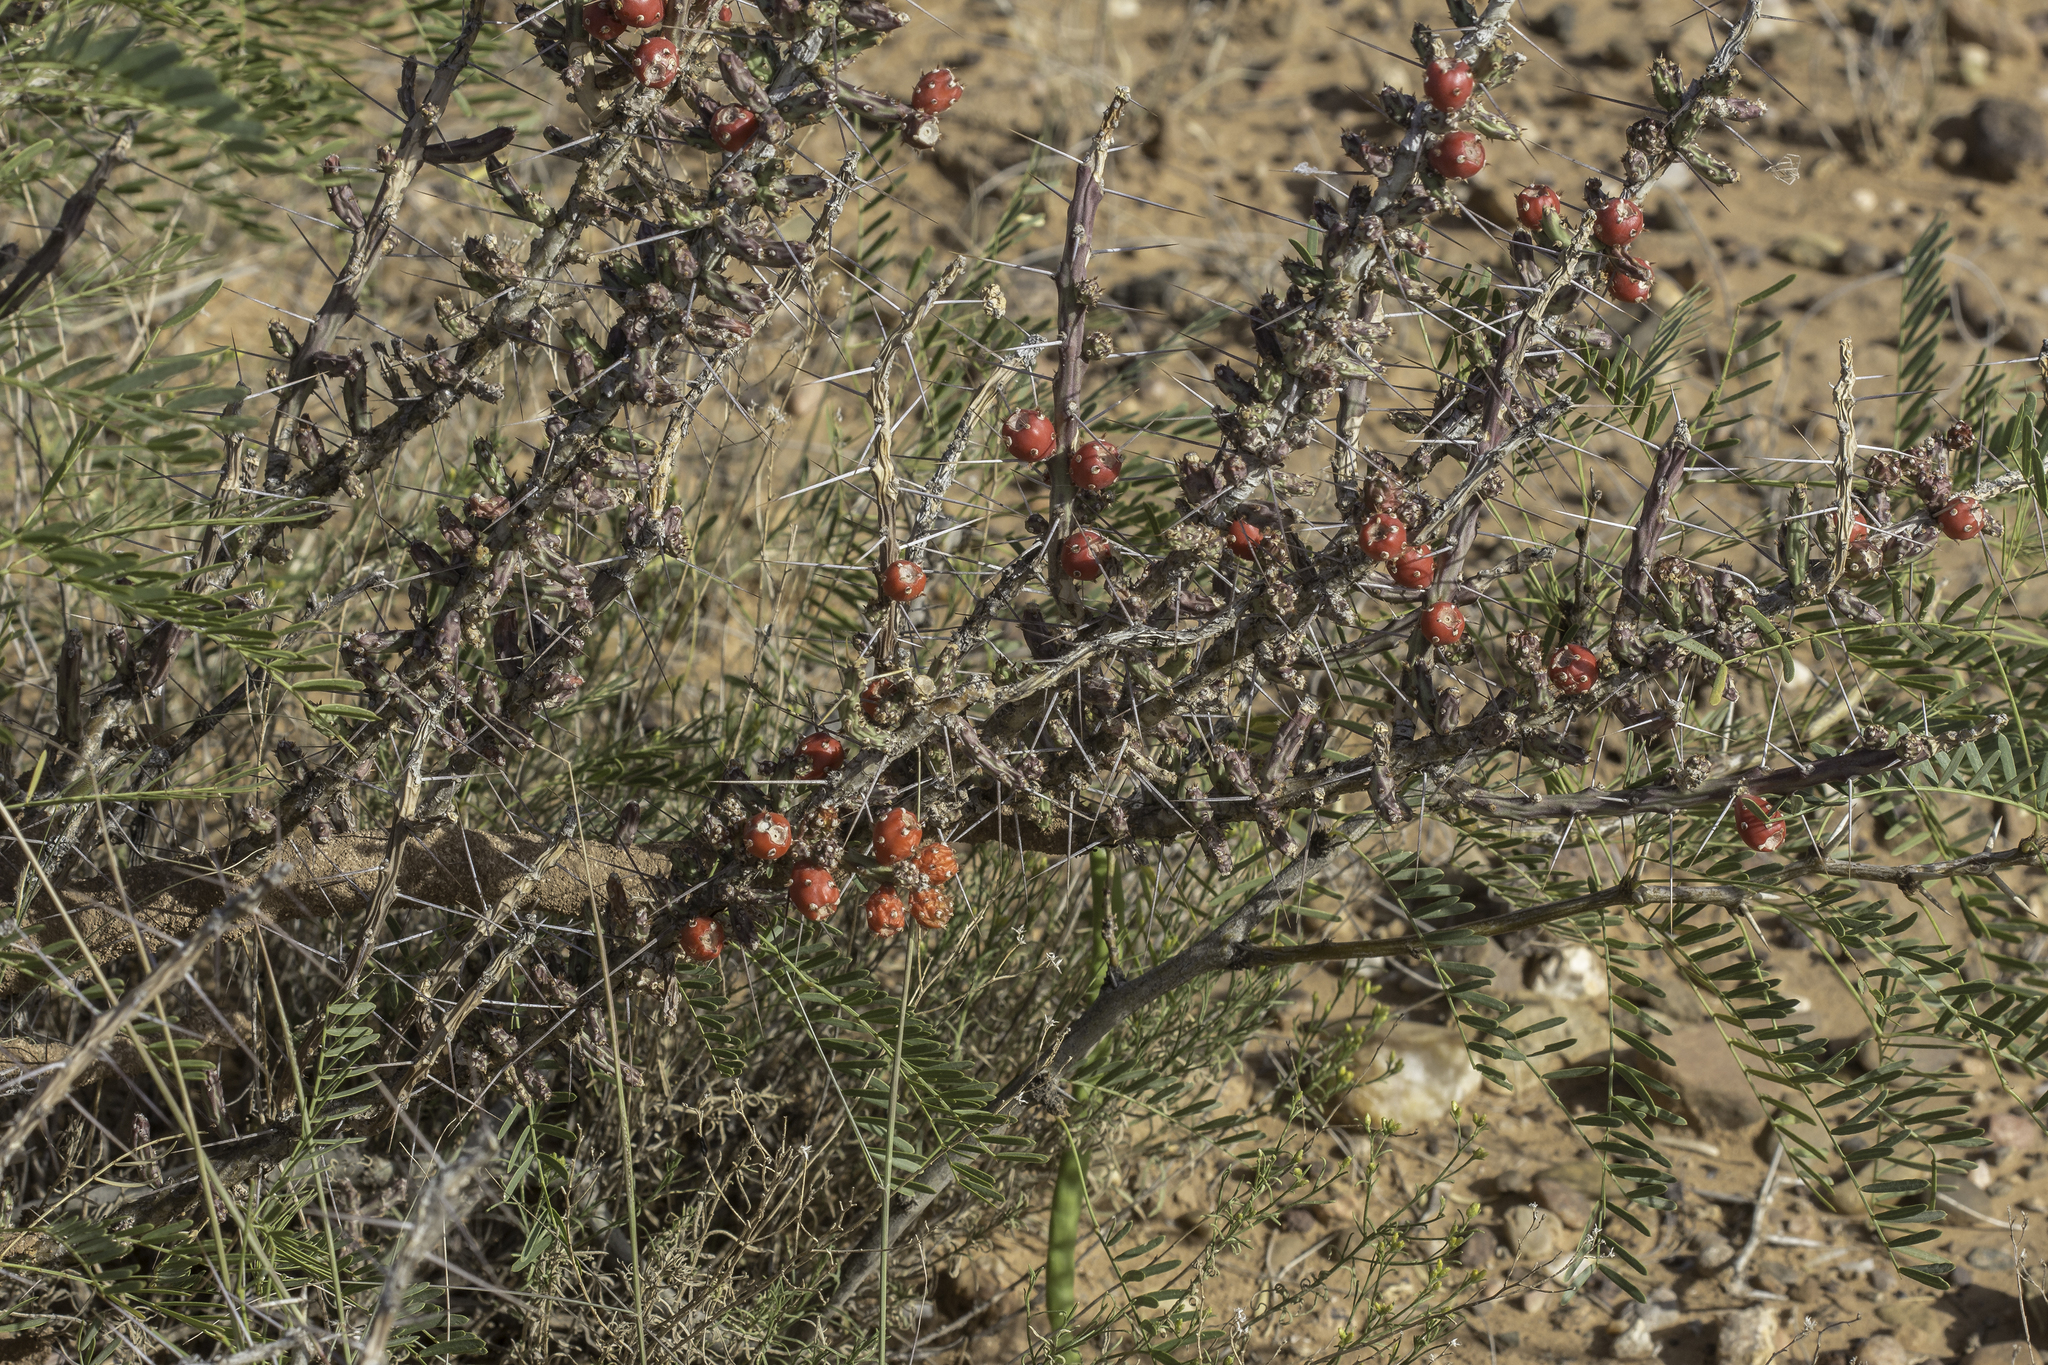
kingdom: Plantae
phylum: Tracheophyta
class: Magnoliopsida
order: Caryophyllales
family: Cactaceae
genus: Cylindropuntia
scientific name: Cylindropuntia leptocaulis
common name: Christmas cactus
